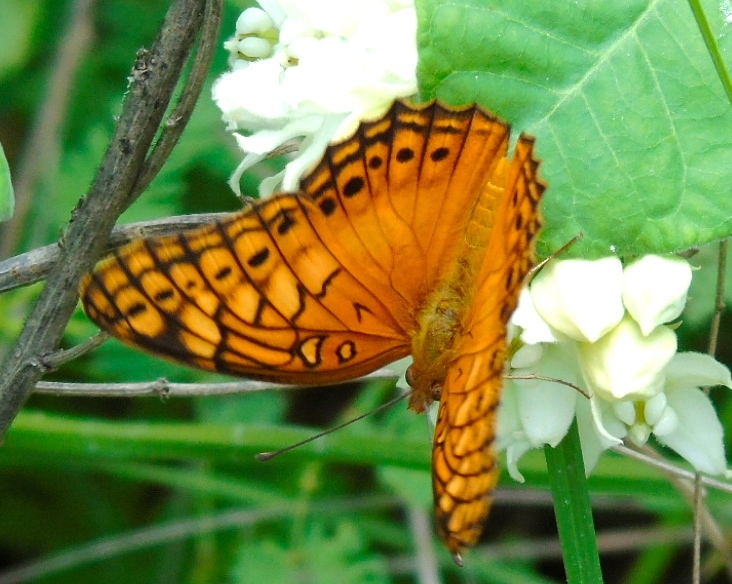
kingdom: Animalia
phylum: Arthropoda
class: Insecta
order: Lepidoptera
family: Nymphalidae
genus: Euptoieta
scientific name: Euptoieta hegesia
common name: Mexican fritillary
